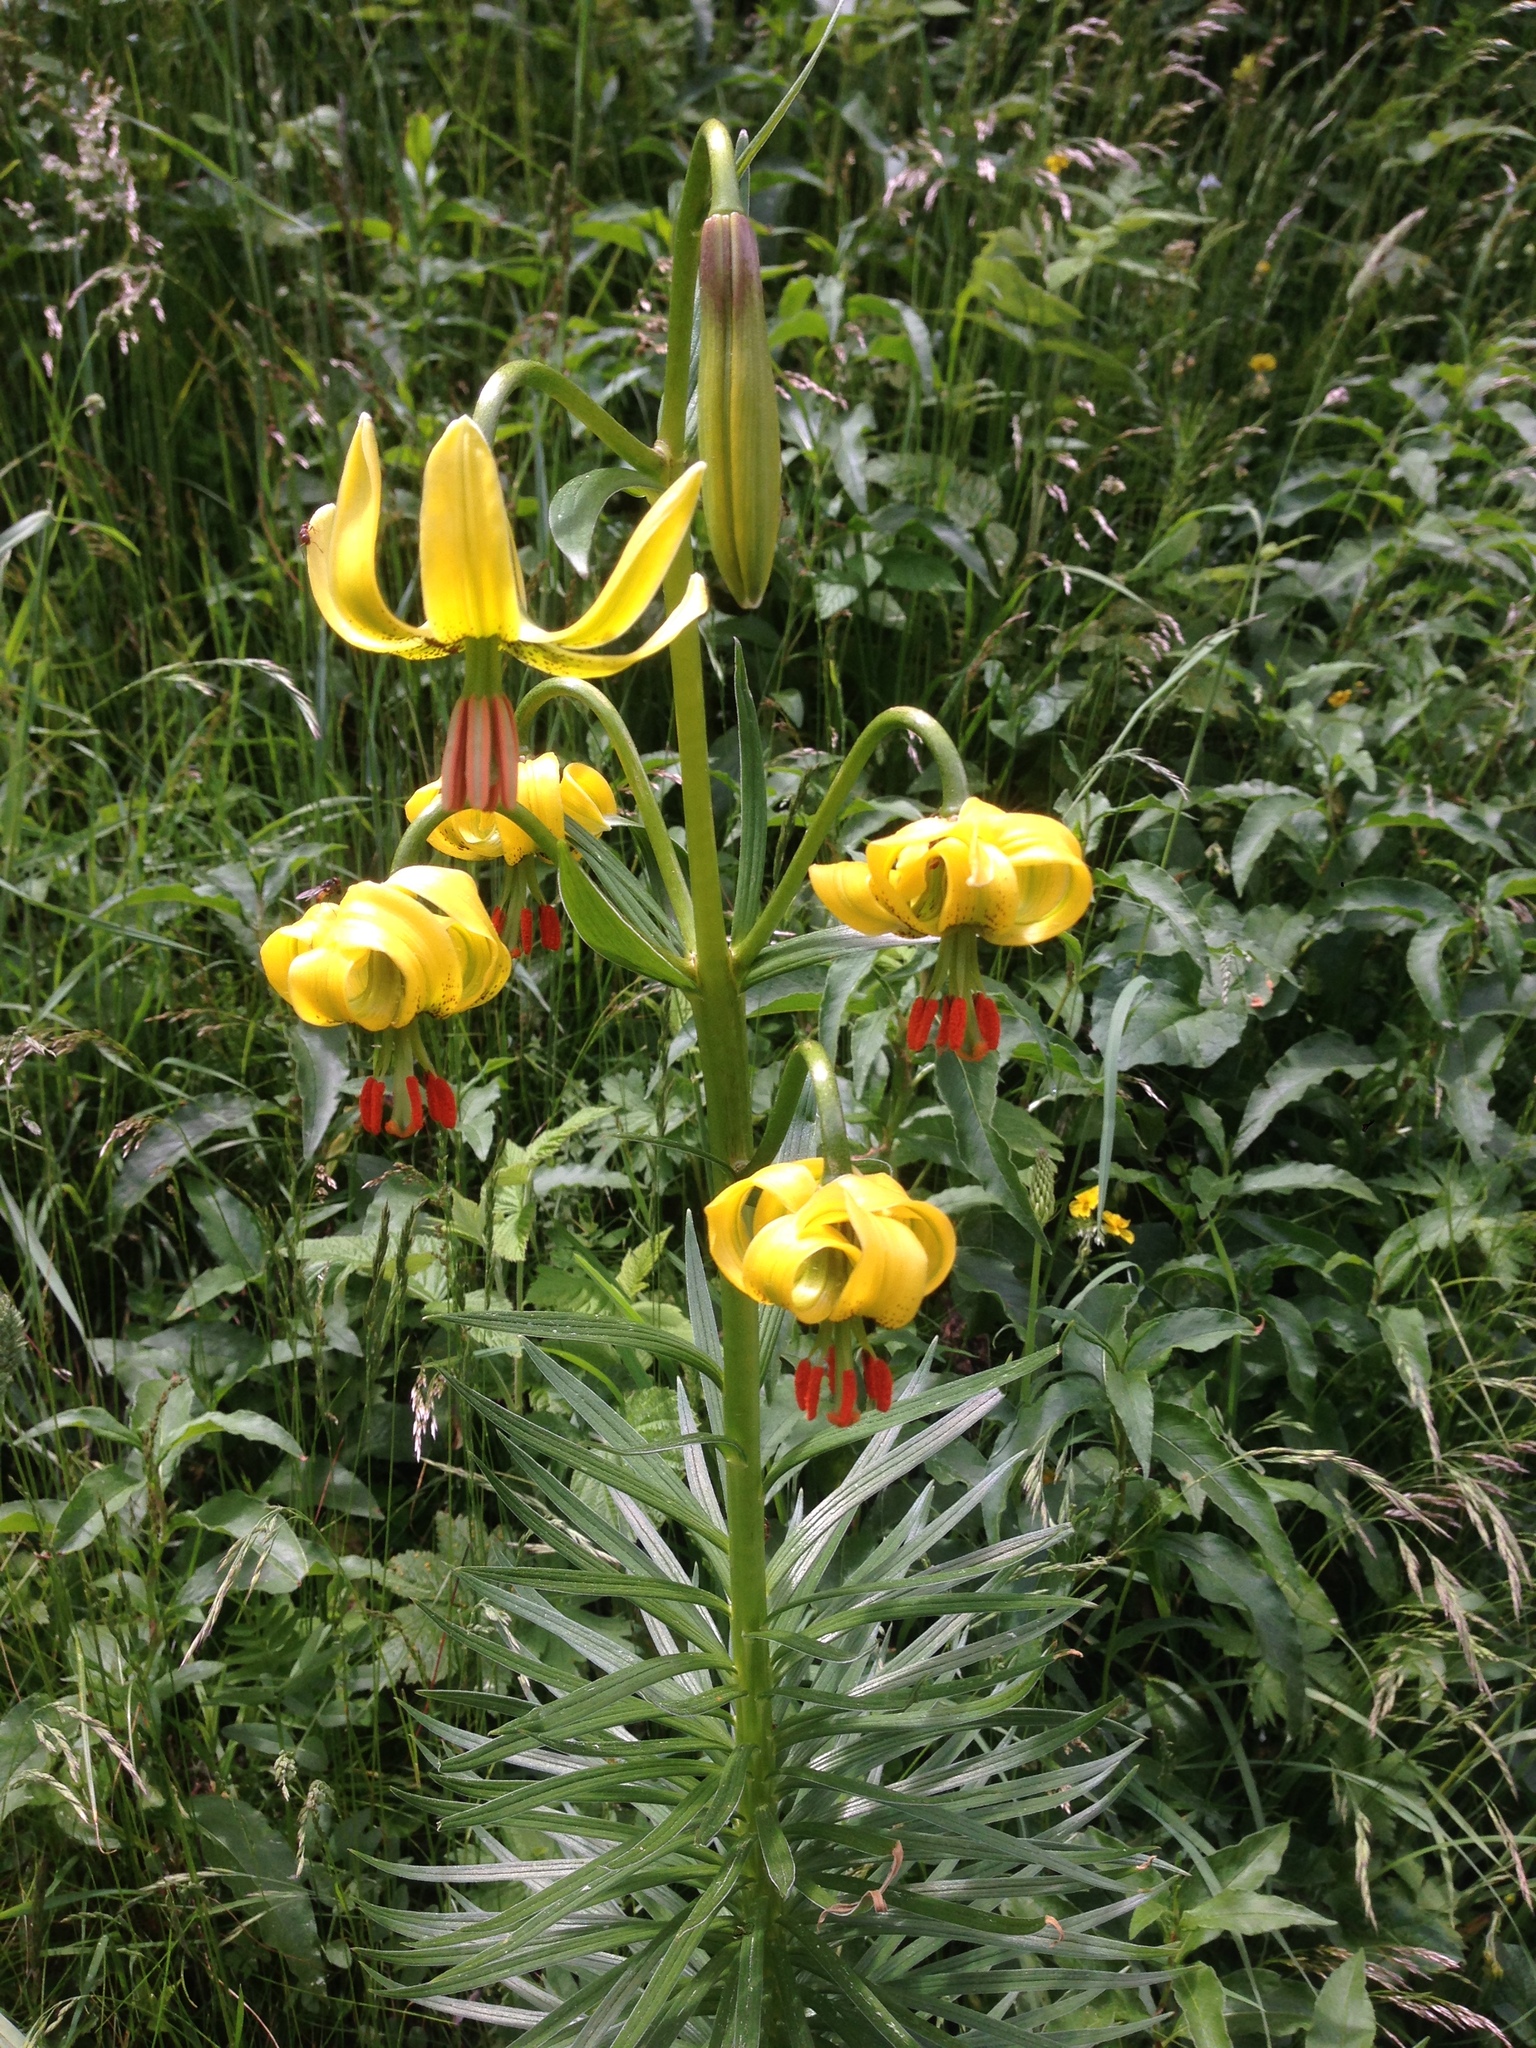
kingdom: Plantae
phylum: Tracheophyta
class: Liliopsida
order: Liliales
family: Liliaceae
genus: Lilium
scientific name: Lilium pyrenaicum
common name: Pyrenean lily
